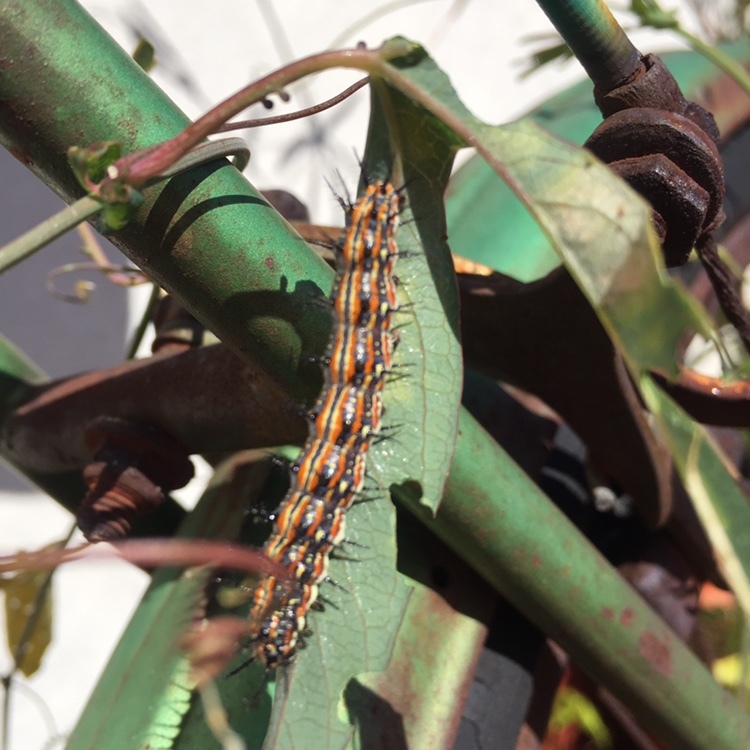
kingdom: Animalia
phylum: Arthropoda
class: Insecta
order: Lepidoptera
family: Nymphalidae
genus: Dione
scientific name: Dione vanillae
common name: Gulf fritillary
